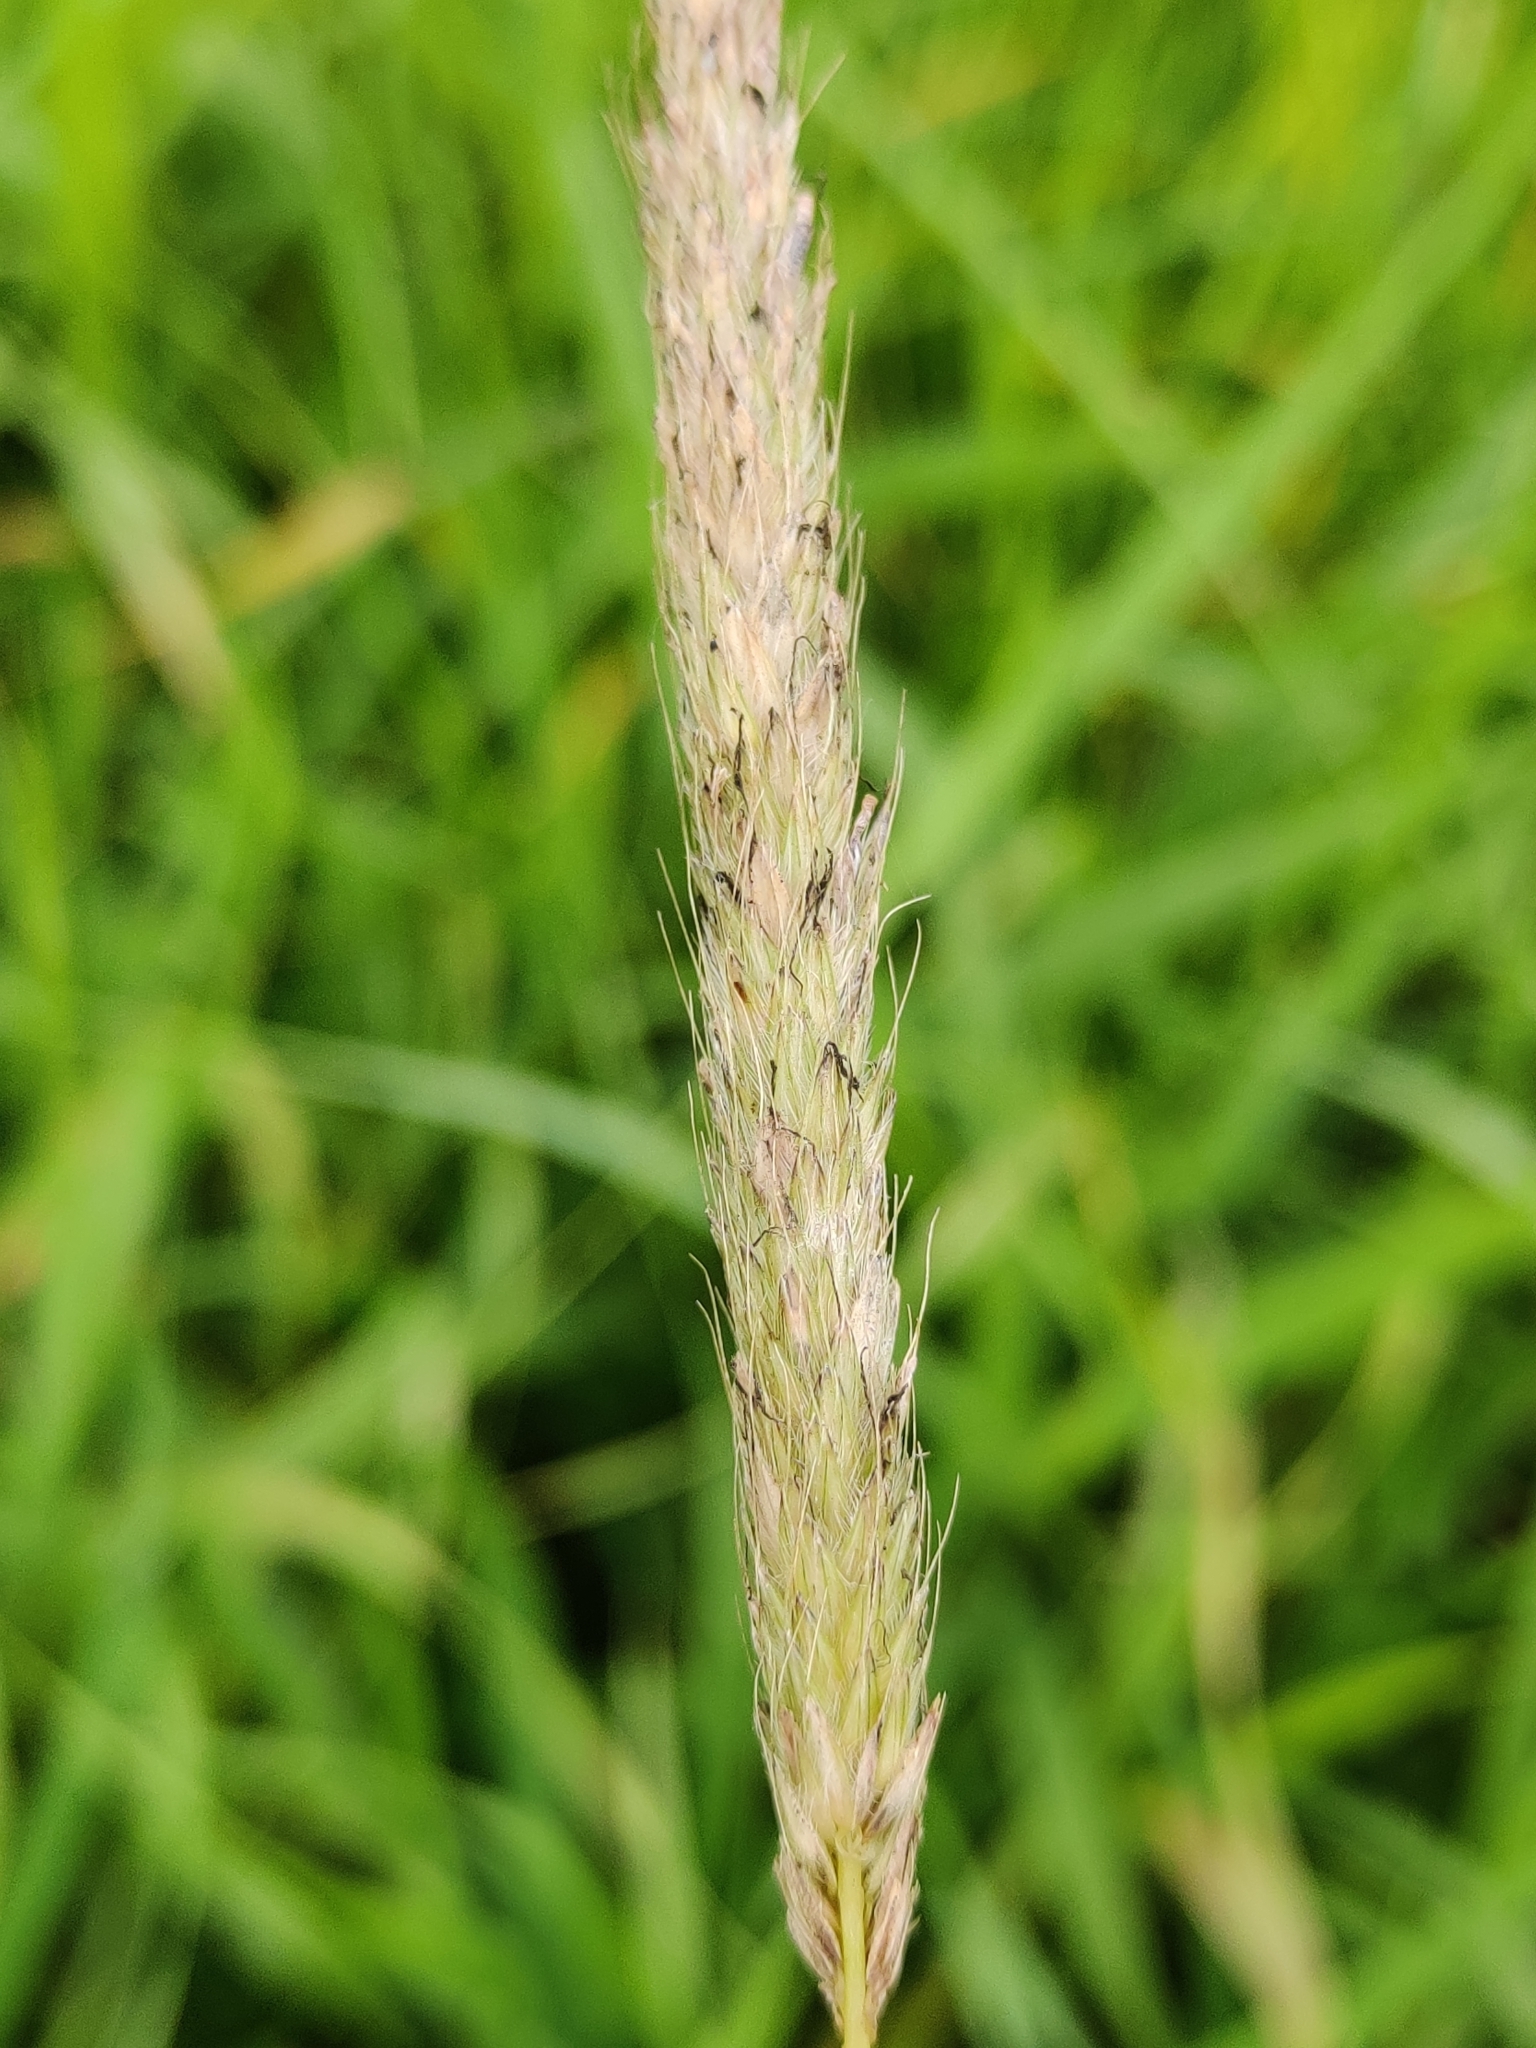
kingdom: Plantae
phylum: Tracheophyta
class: Liliopsida
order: Poales
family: Poaceae
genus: Alopecurus
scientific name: Alopecurus pratensis
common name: Meadow foxtail
